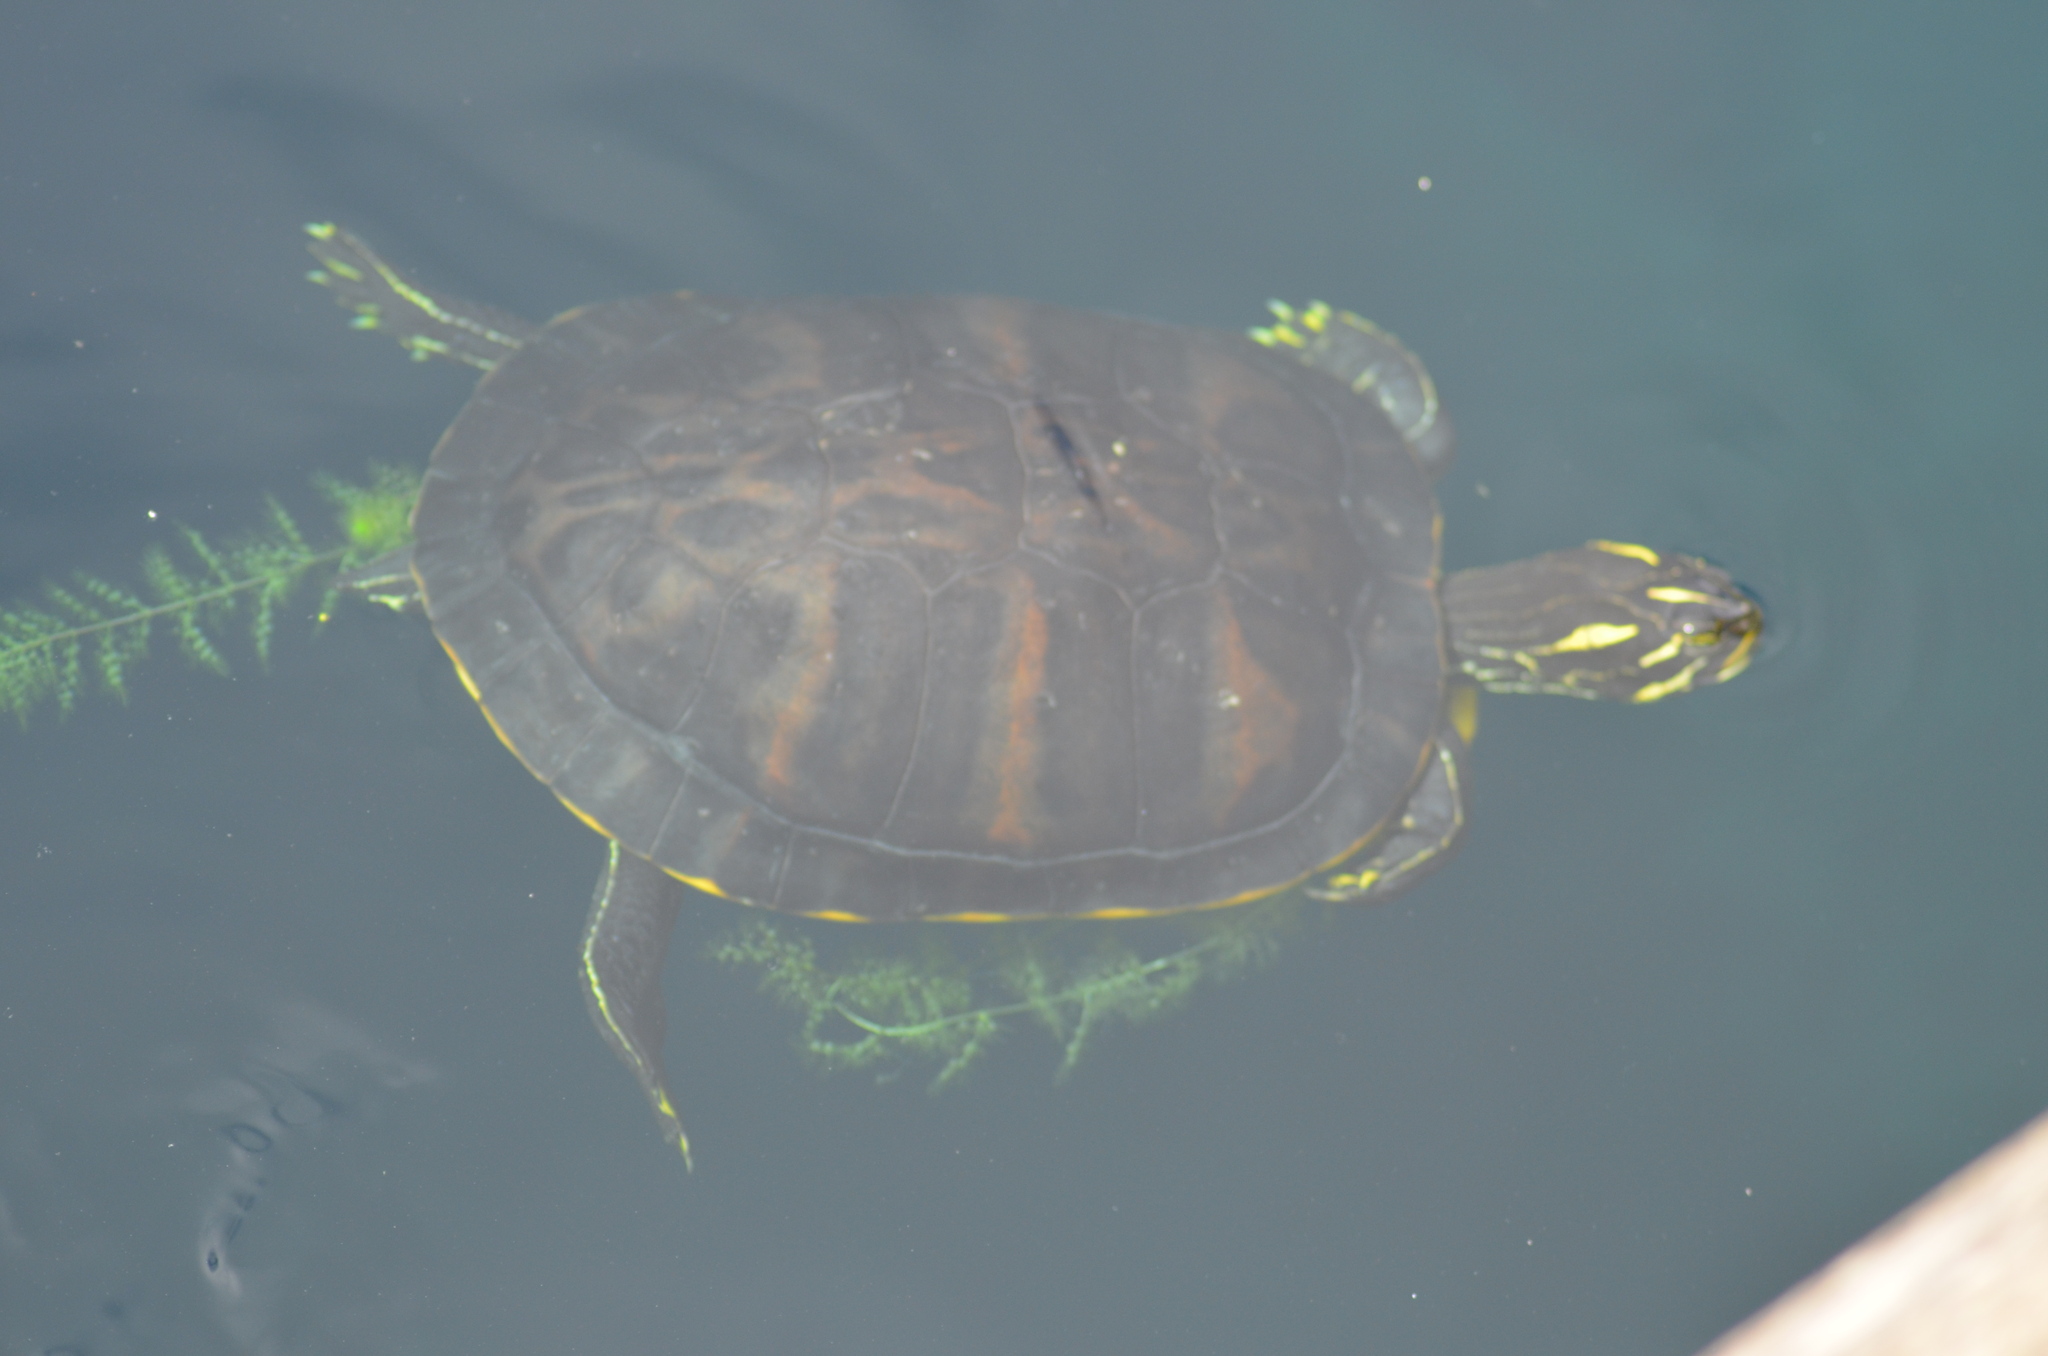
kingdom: Animalia
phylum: Chordata
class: Testudines
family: Emydidae
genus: Trachemys
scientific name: Trachemys scripta
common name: Slider
